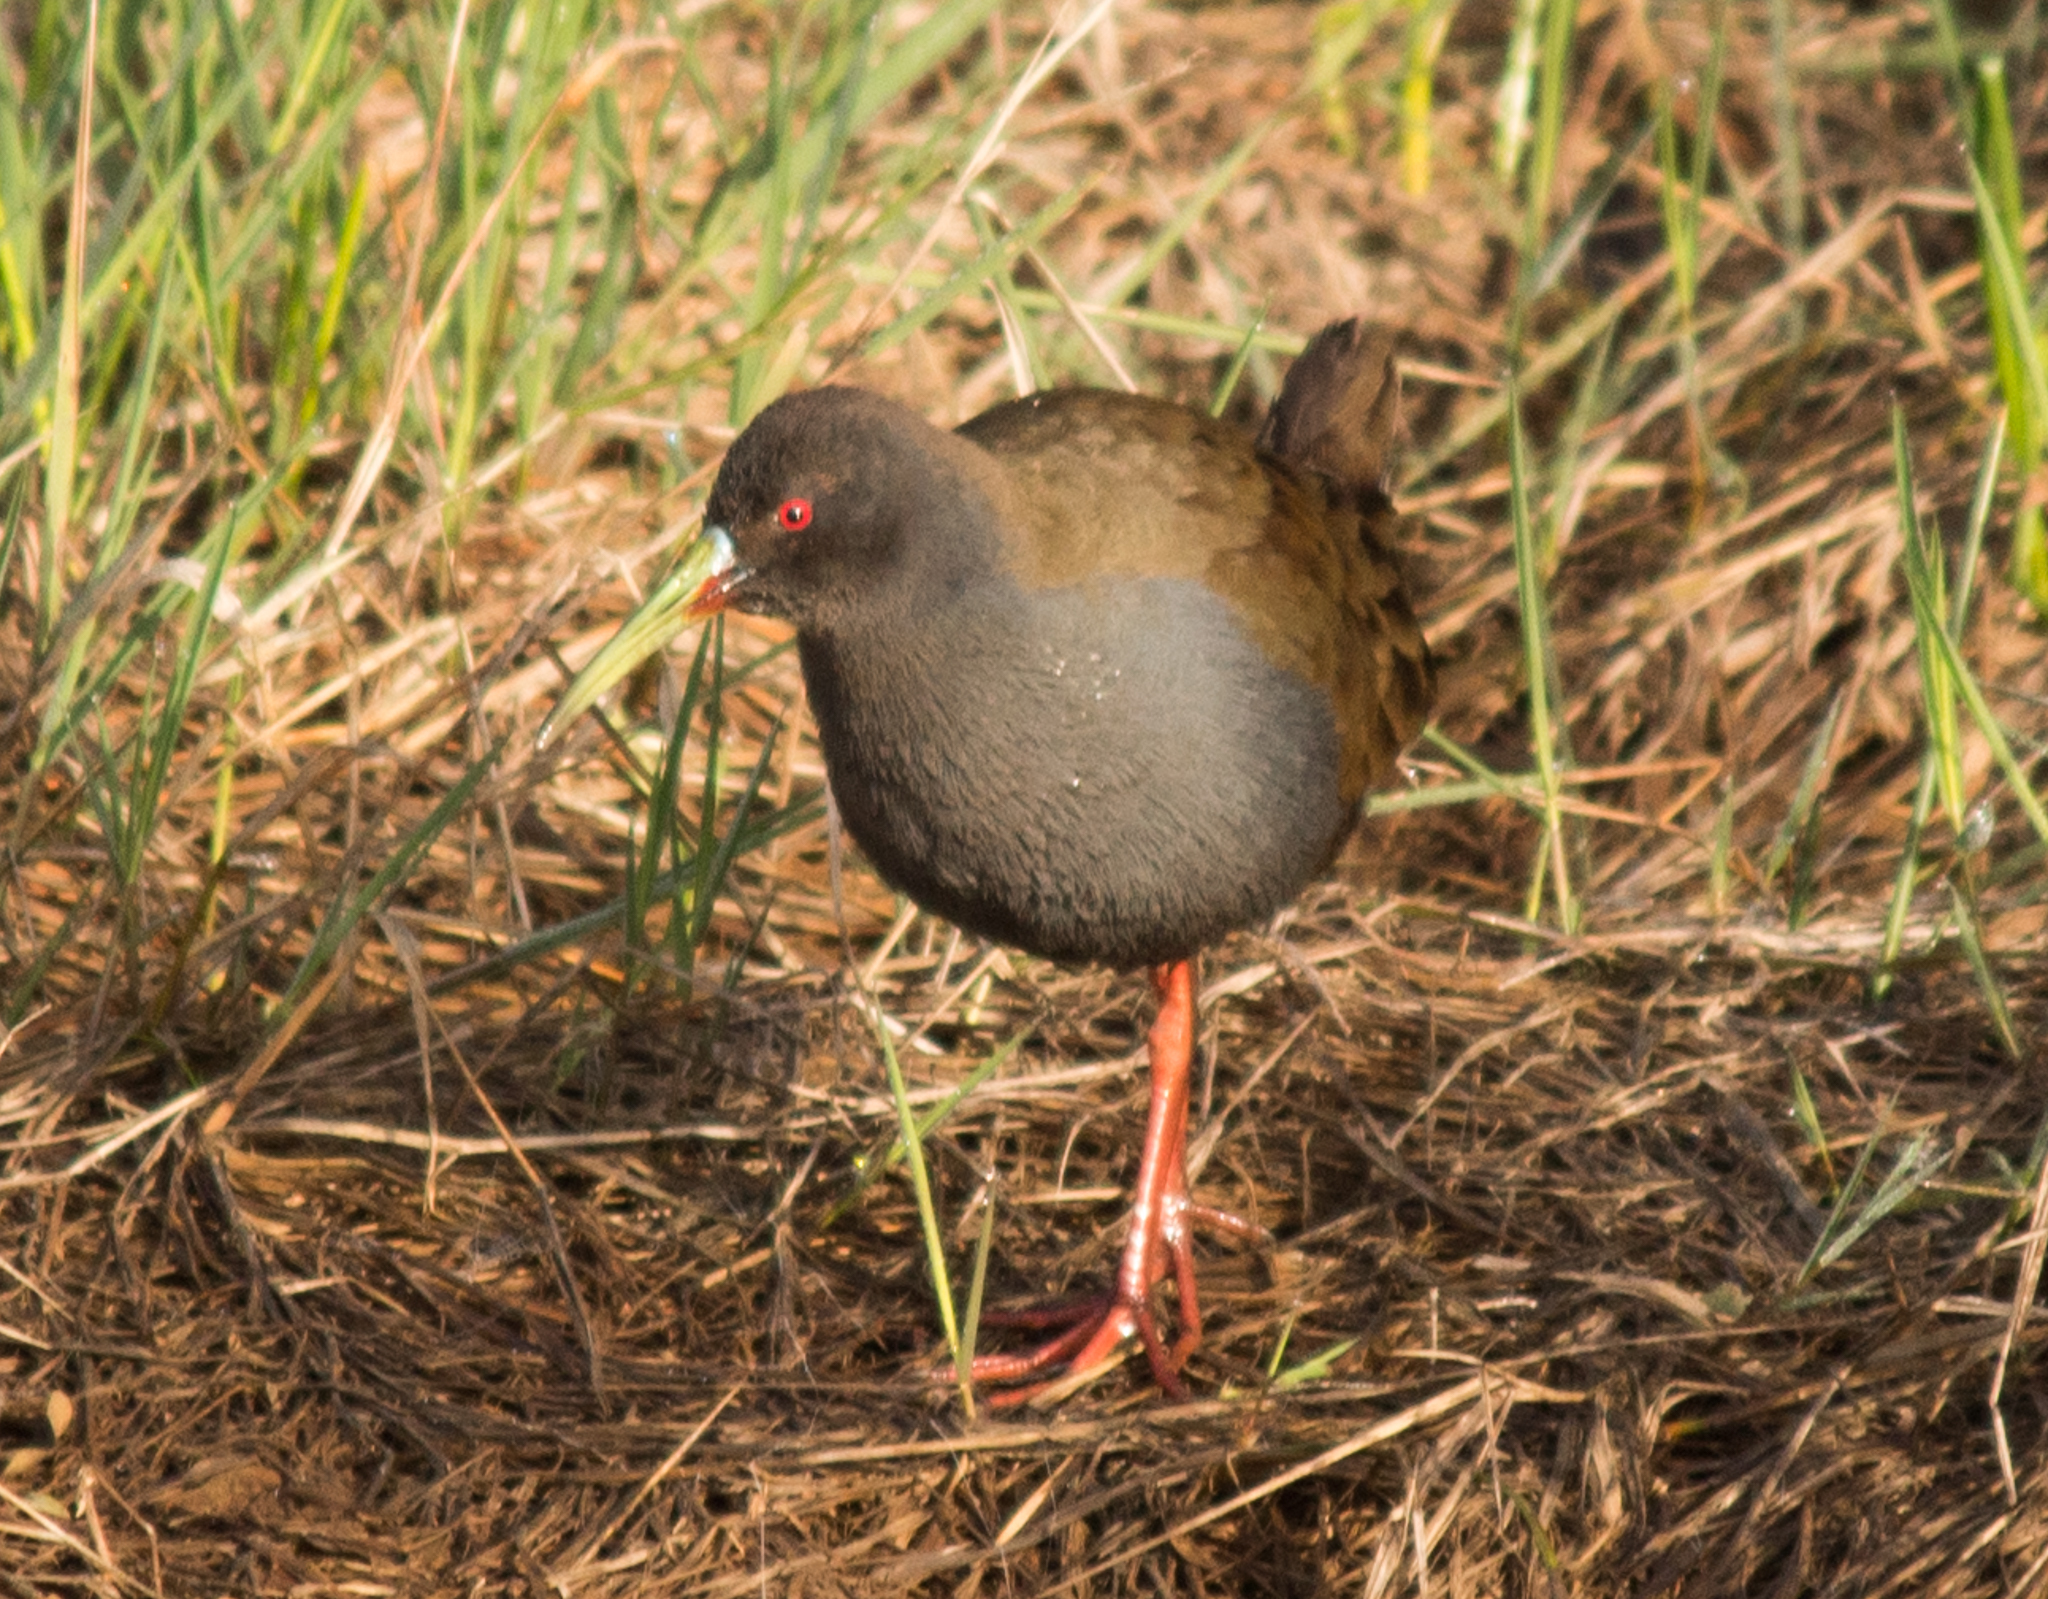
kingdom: Animalia
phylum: Chordata
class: Aves
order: Gruiformes
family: Rallidae
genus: Pardirallus
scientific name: Pardirallus sanguinolentus
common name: Plumbeous rail
